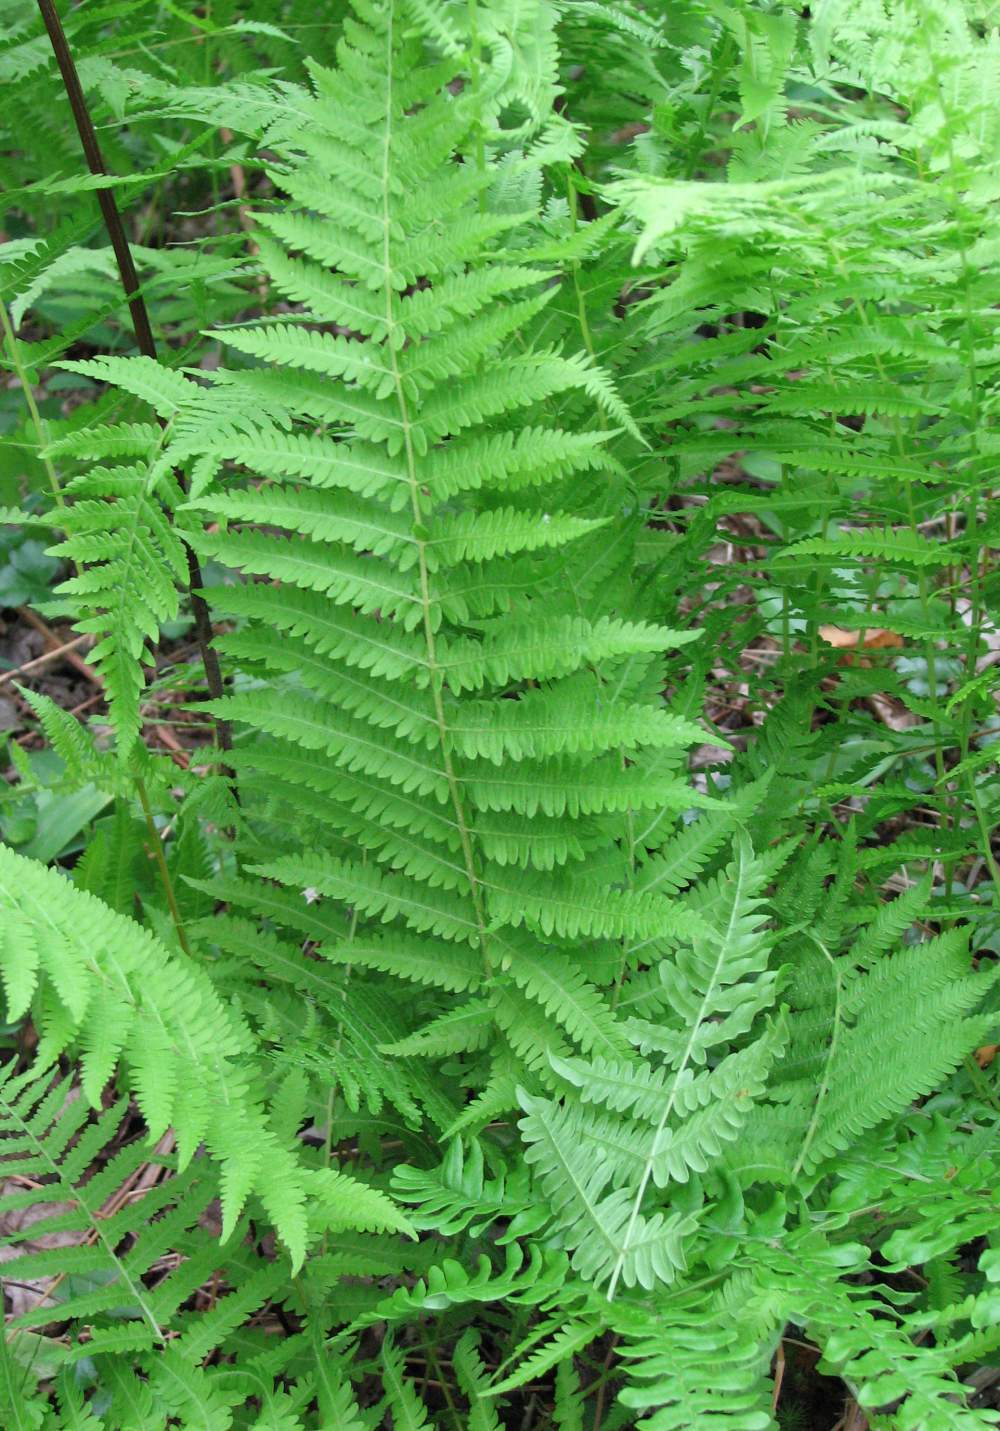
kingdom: Plantae
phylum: Tracheophyta
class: Polypodiopsida
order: Polypodiales
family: Thelypteridaceae
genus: Amauropelta
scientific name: Amauropelta noveboracensis
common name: New york fern
